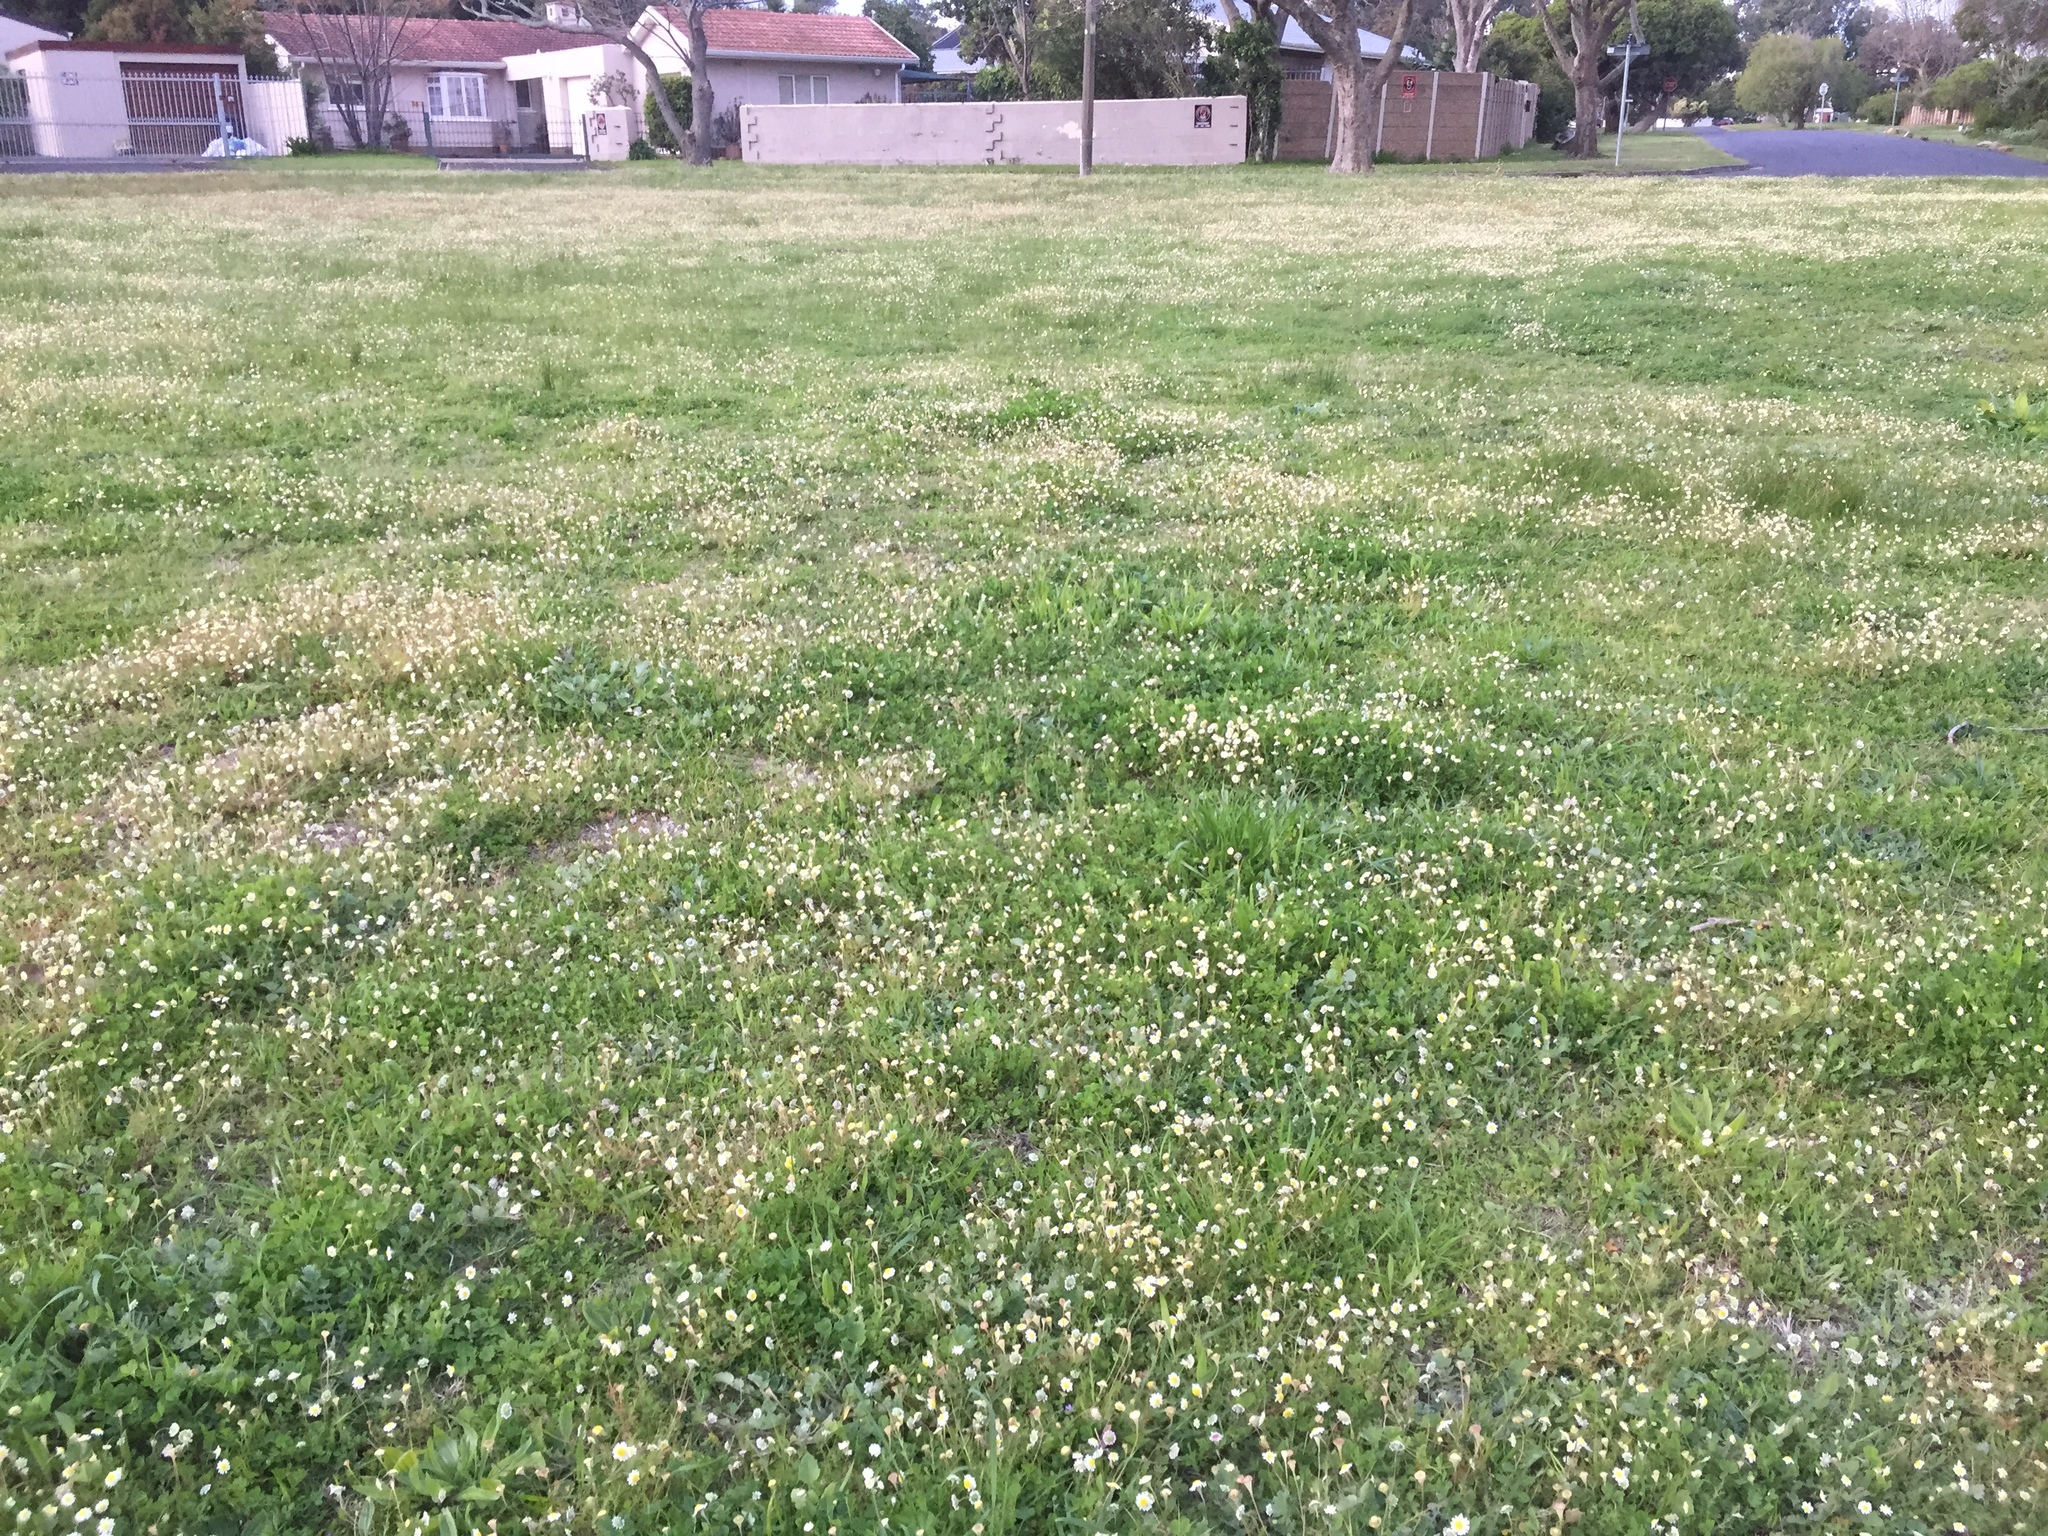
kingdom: Plantae
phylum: Tracheophyta
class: Magnoliopsida
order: Asterales
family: Asteraceae
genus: Cotula
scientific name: Cotula turbinata
